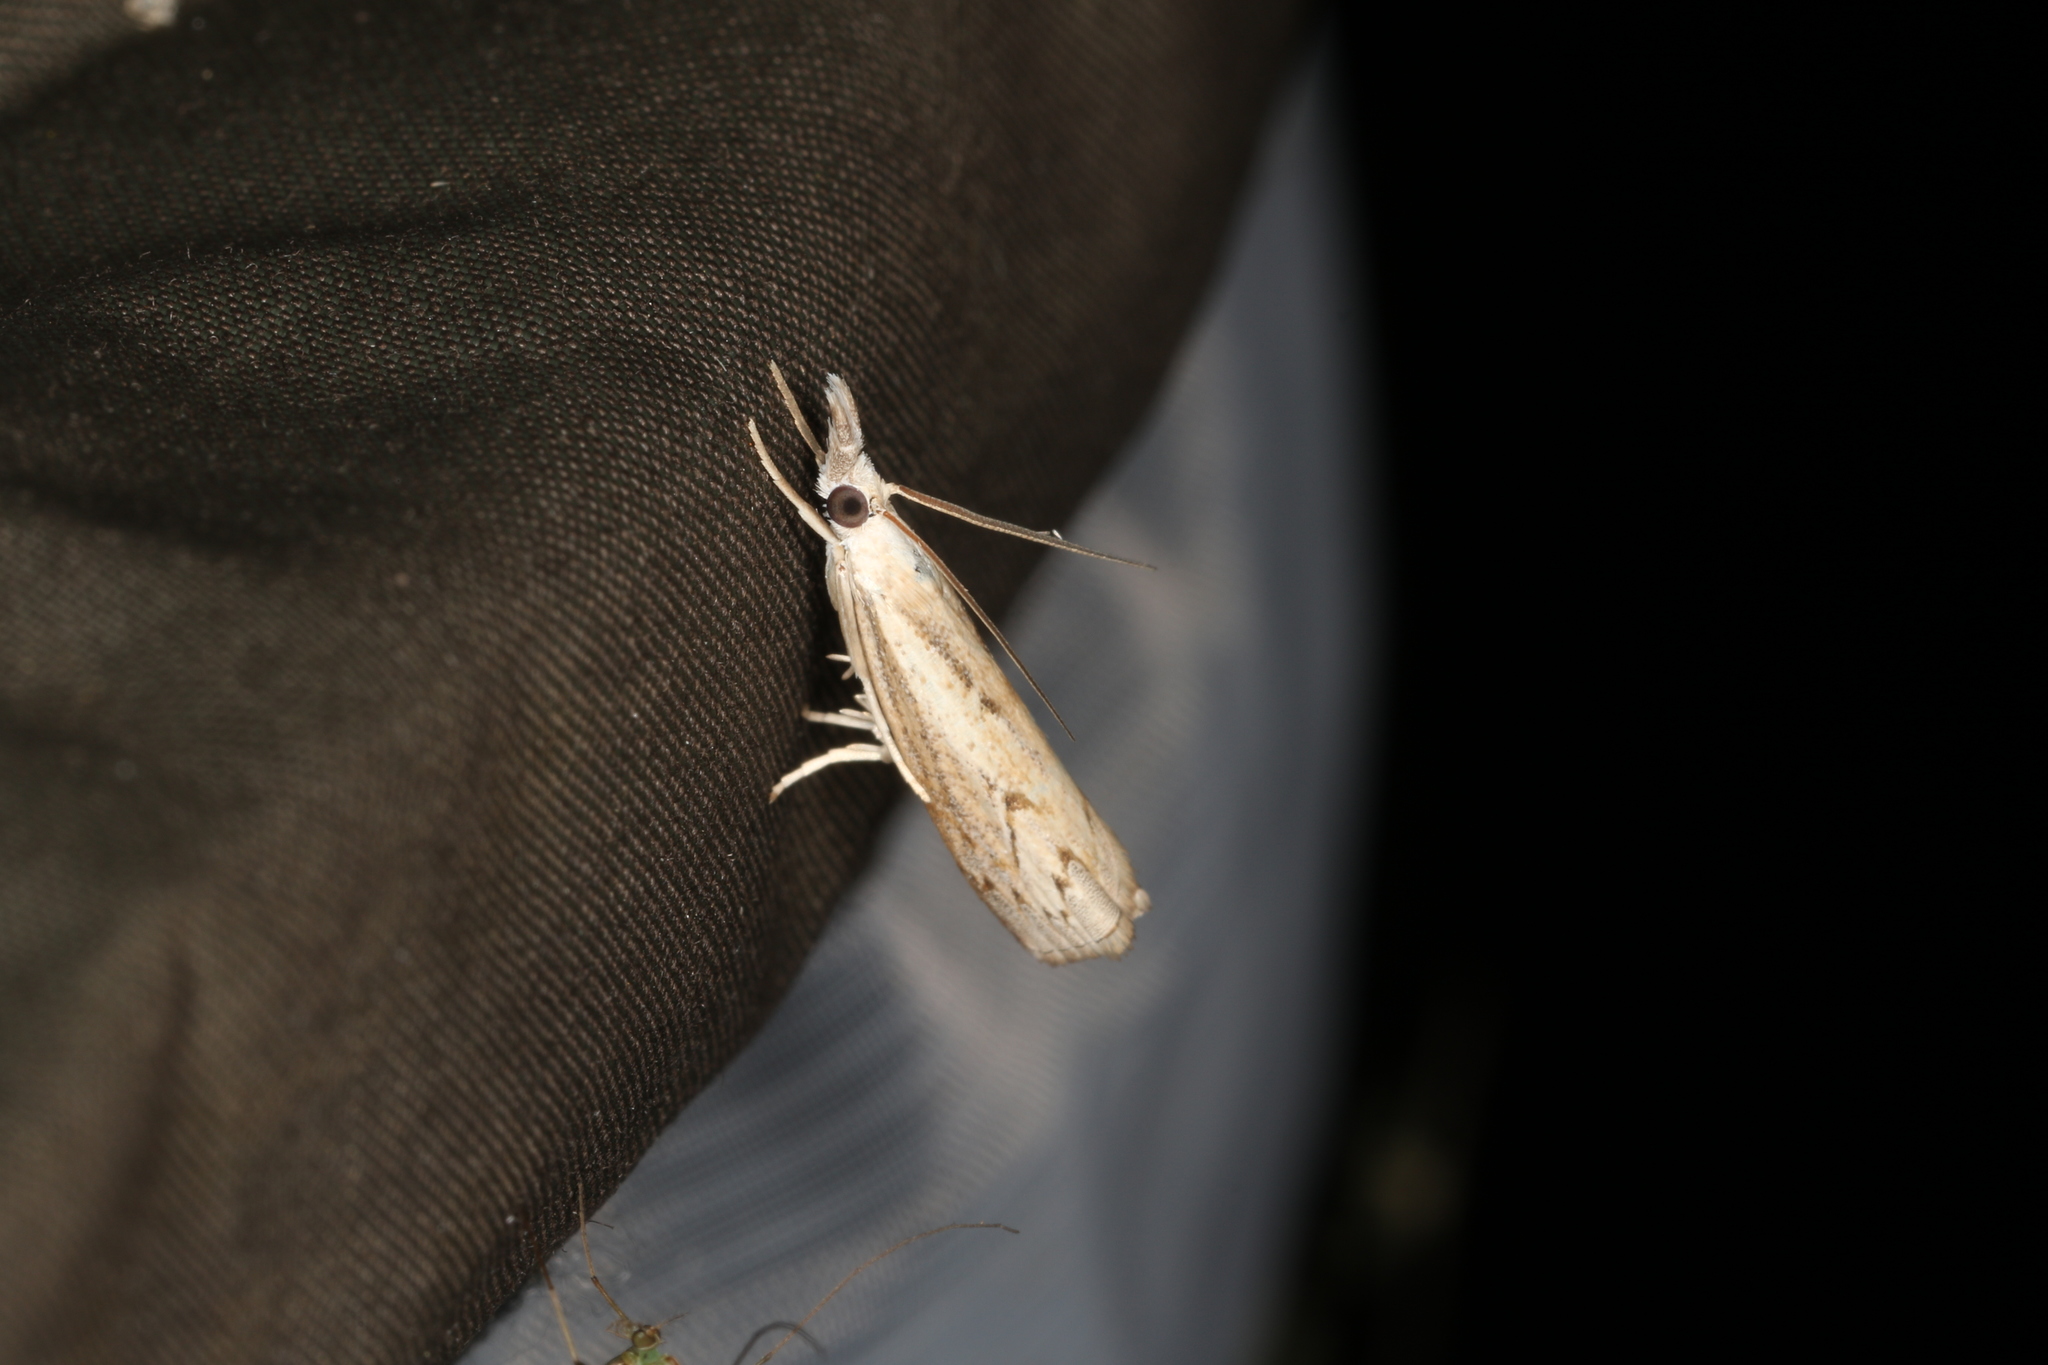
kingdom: Animalia
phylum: Arthropoda
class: Insecta
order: Lepidoptera
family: Crambidae
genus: Culladia
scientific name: Culladia cuneiferellus
